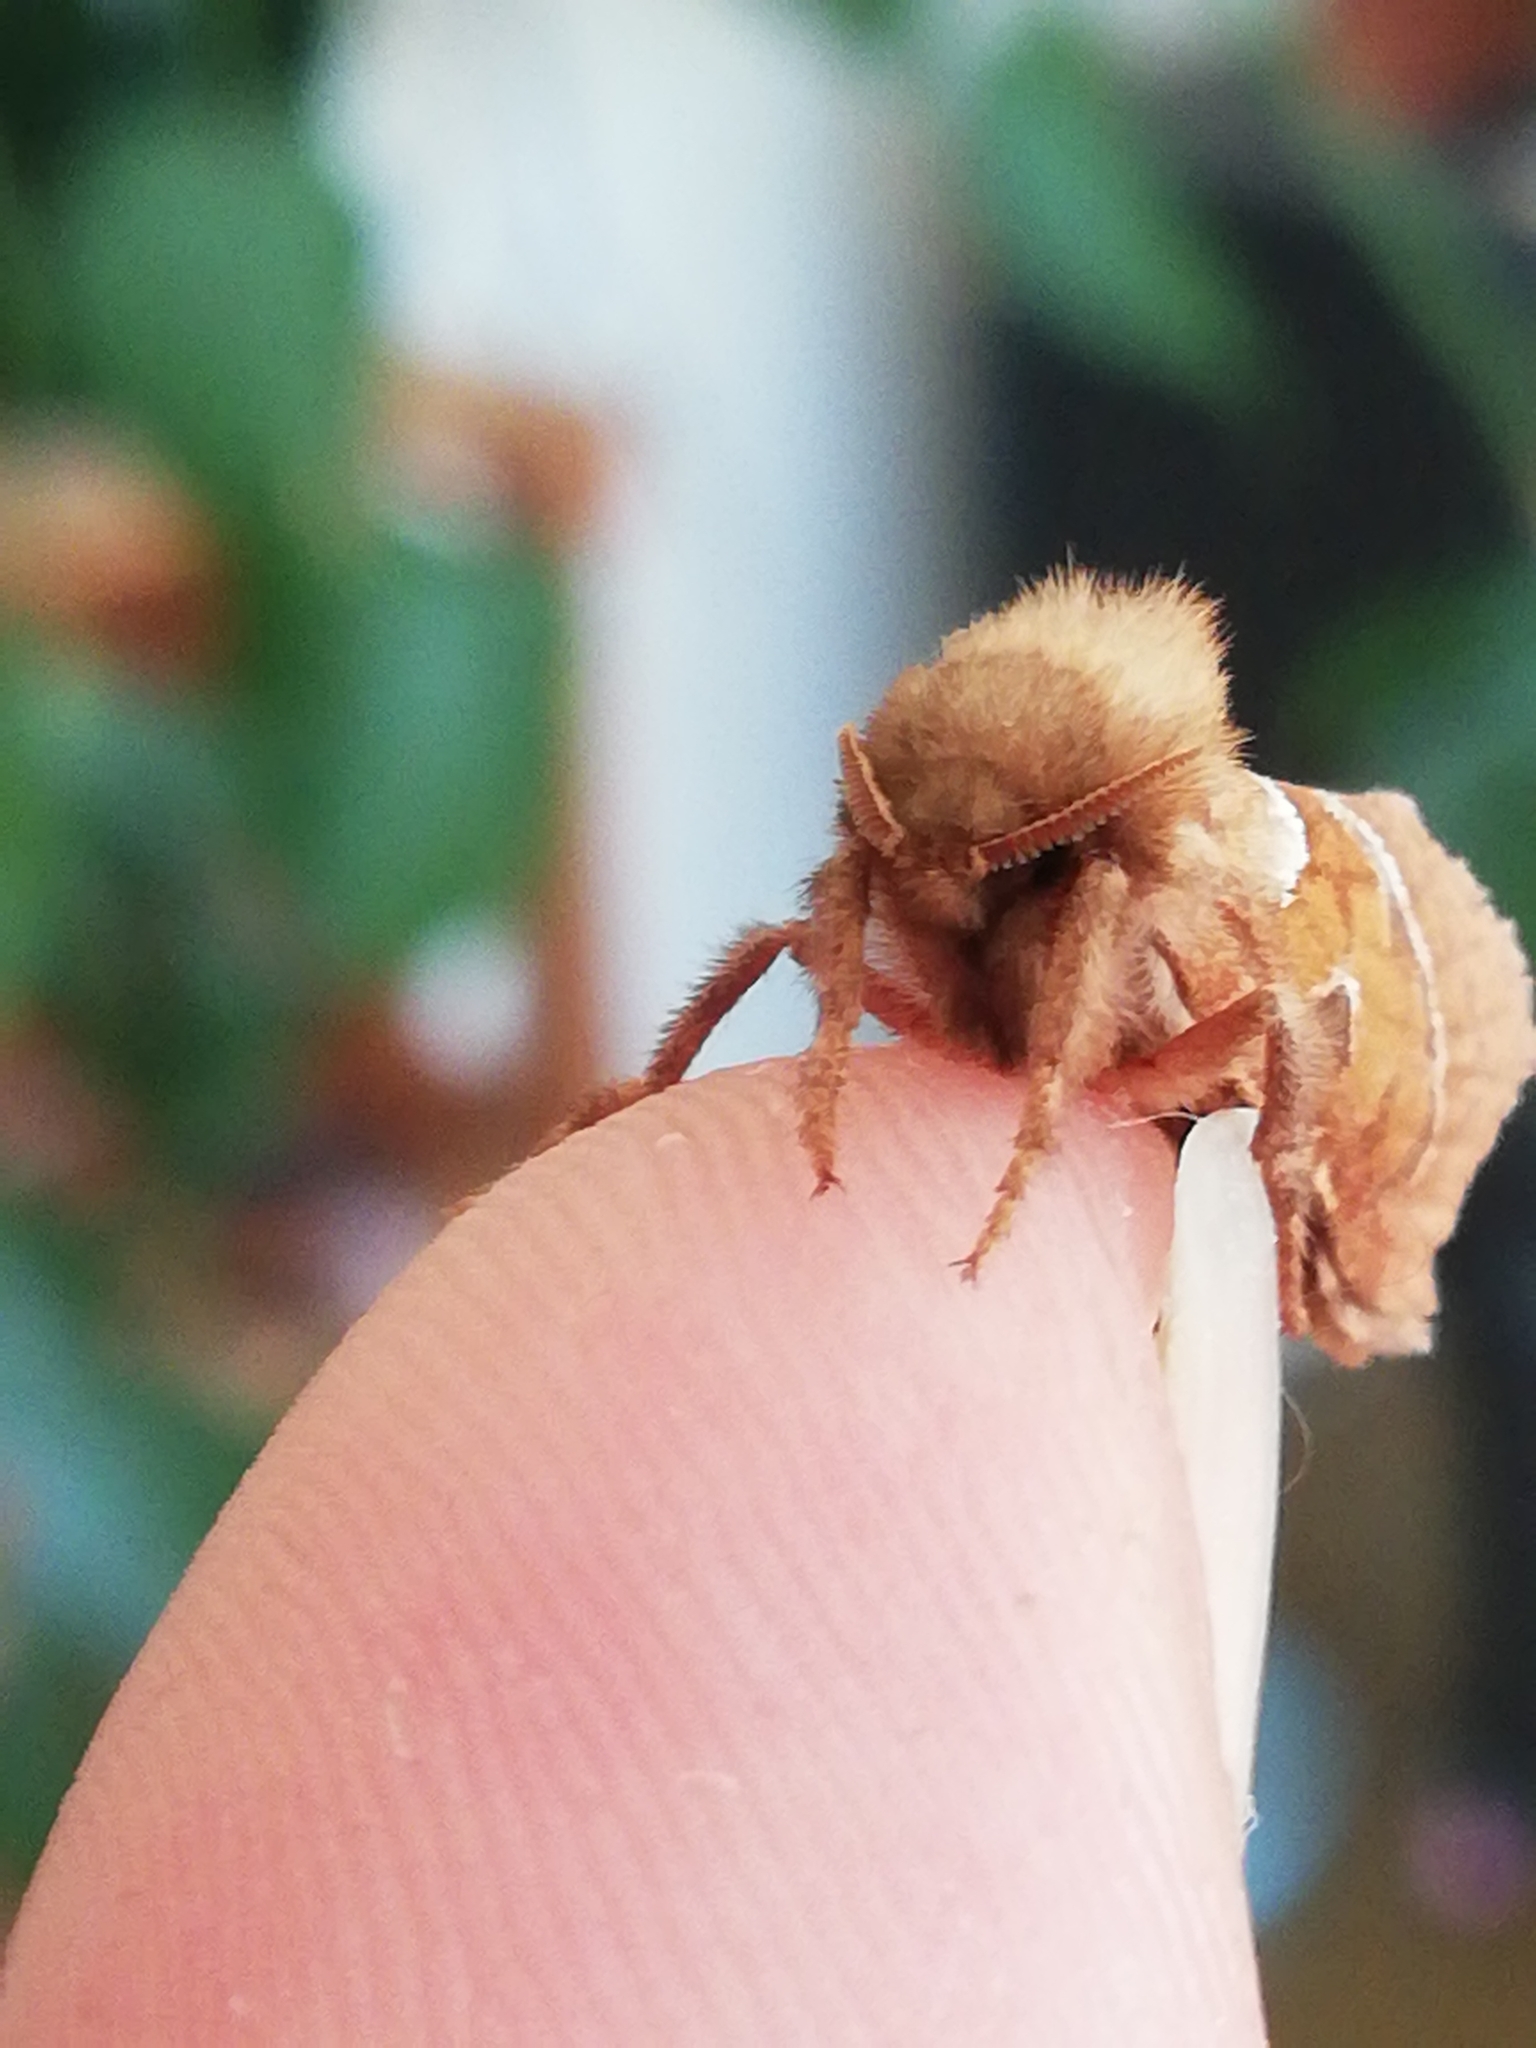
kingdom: Animalia
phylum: Arthropoda
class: Insecta
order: Lepidoptera
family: Hepialidae
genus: Triodia
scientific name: Triodia sylvina
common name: Orange swift
